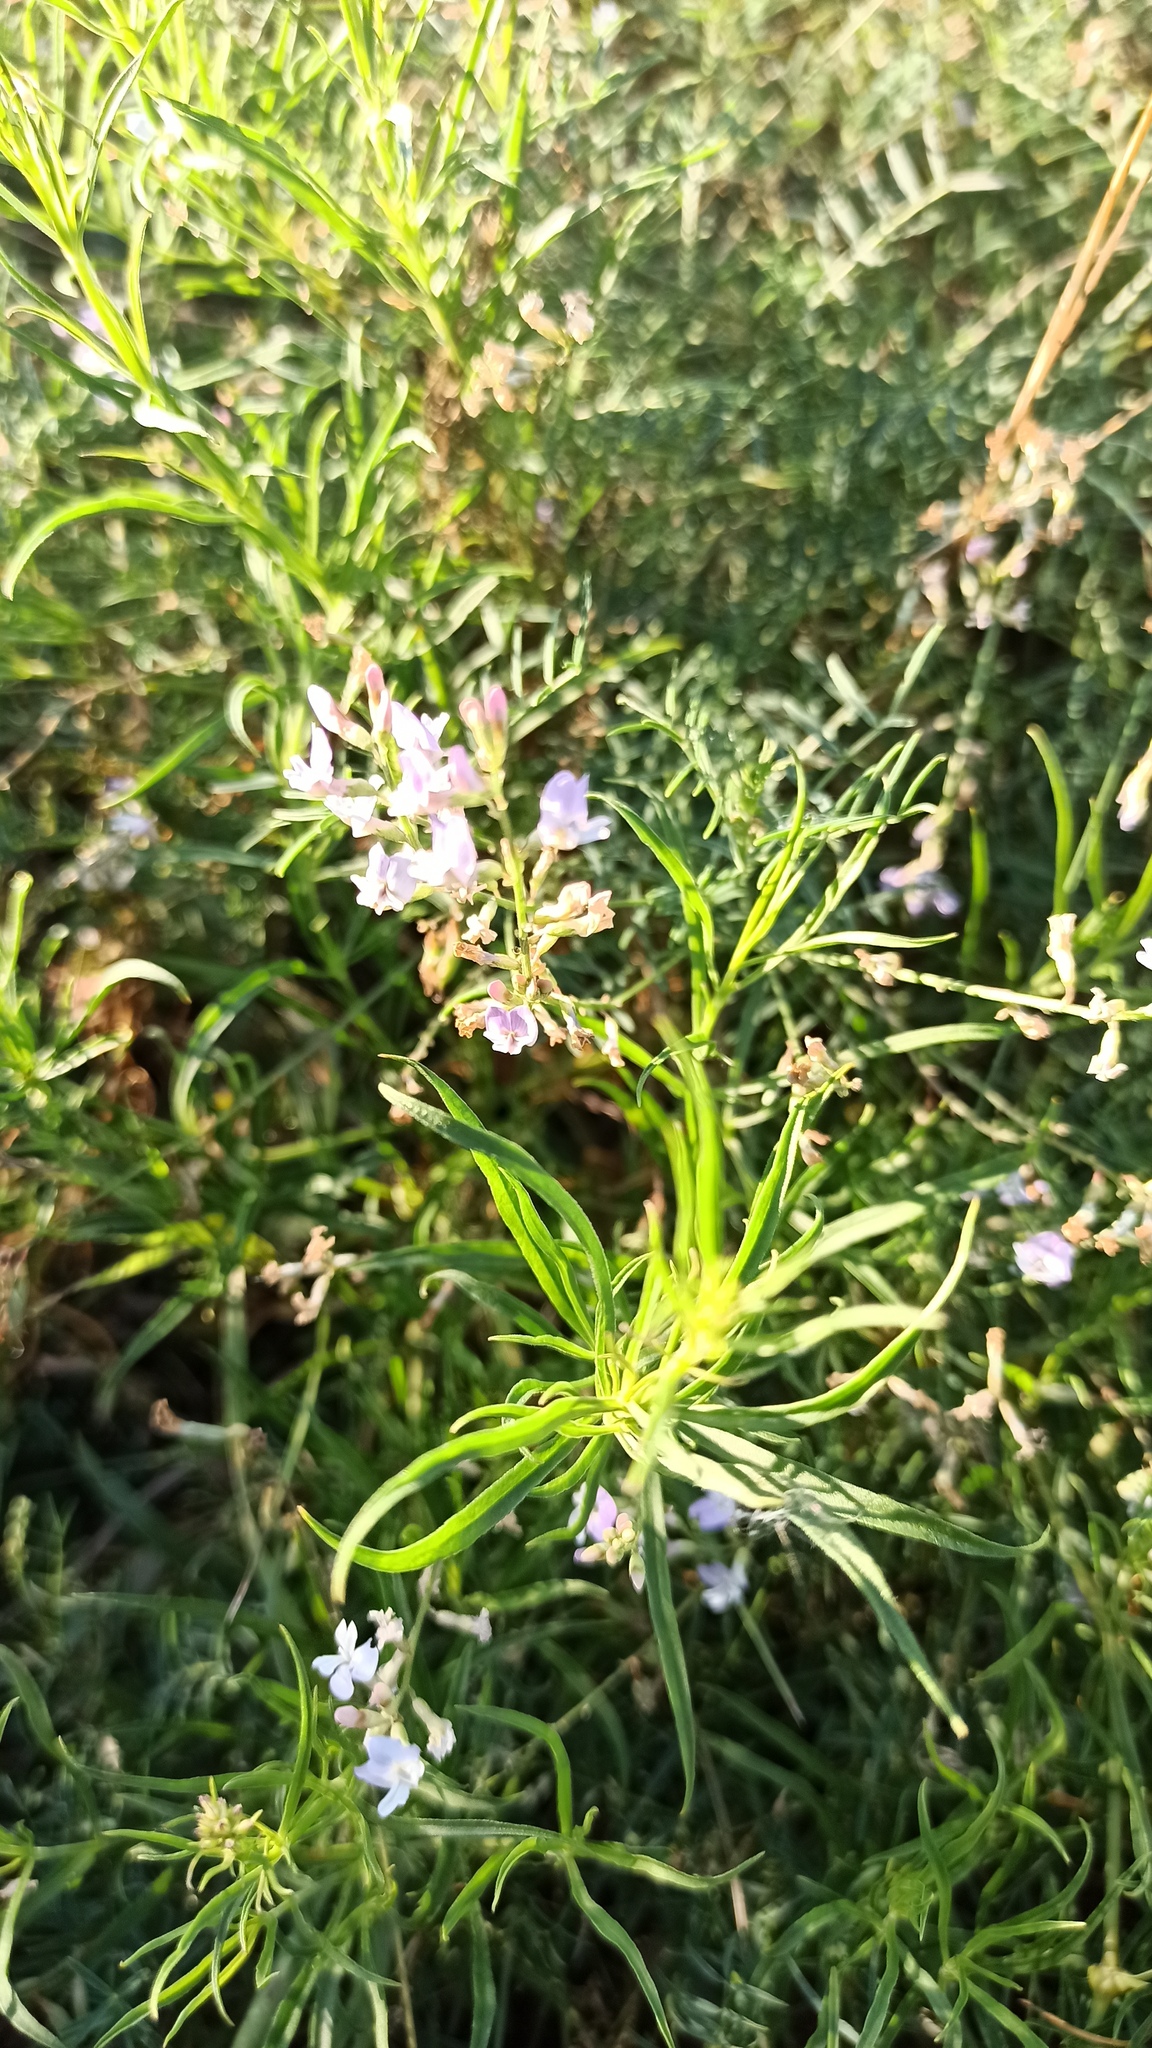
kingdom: Plantae
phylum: Tracheophyta
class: Magnoliopsida
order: Fabales
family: Fabaceae
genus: Astragalus
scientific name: Astragalus austriacus
